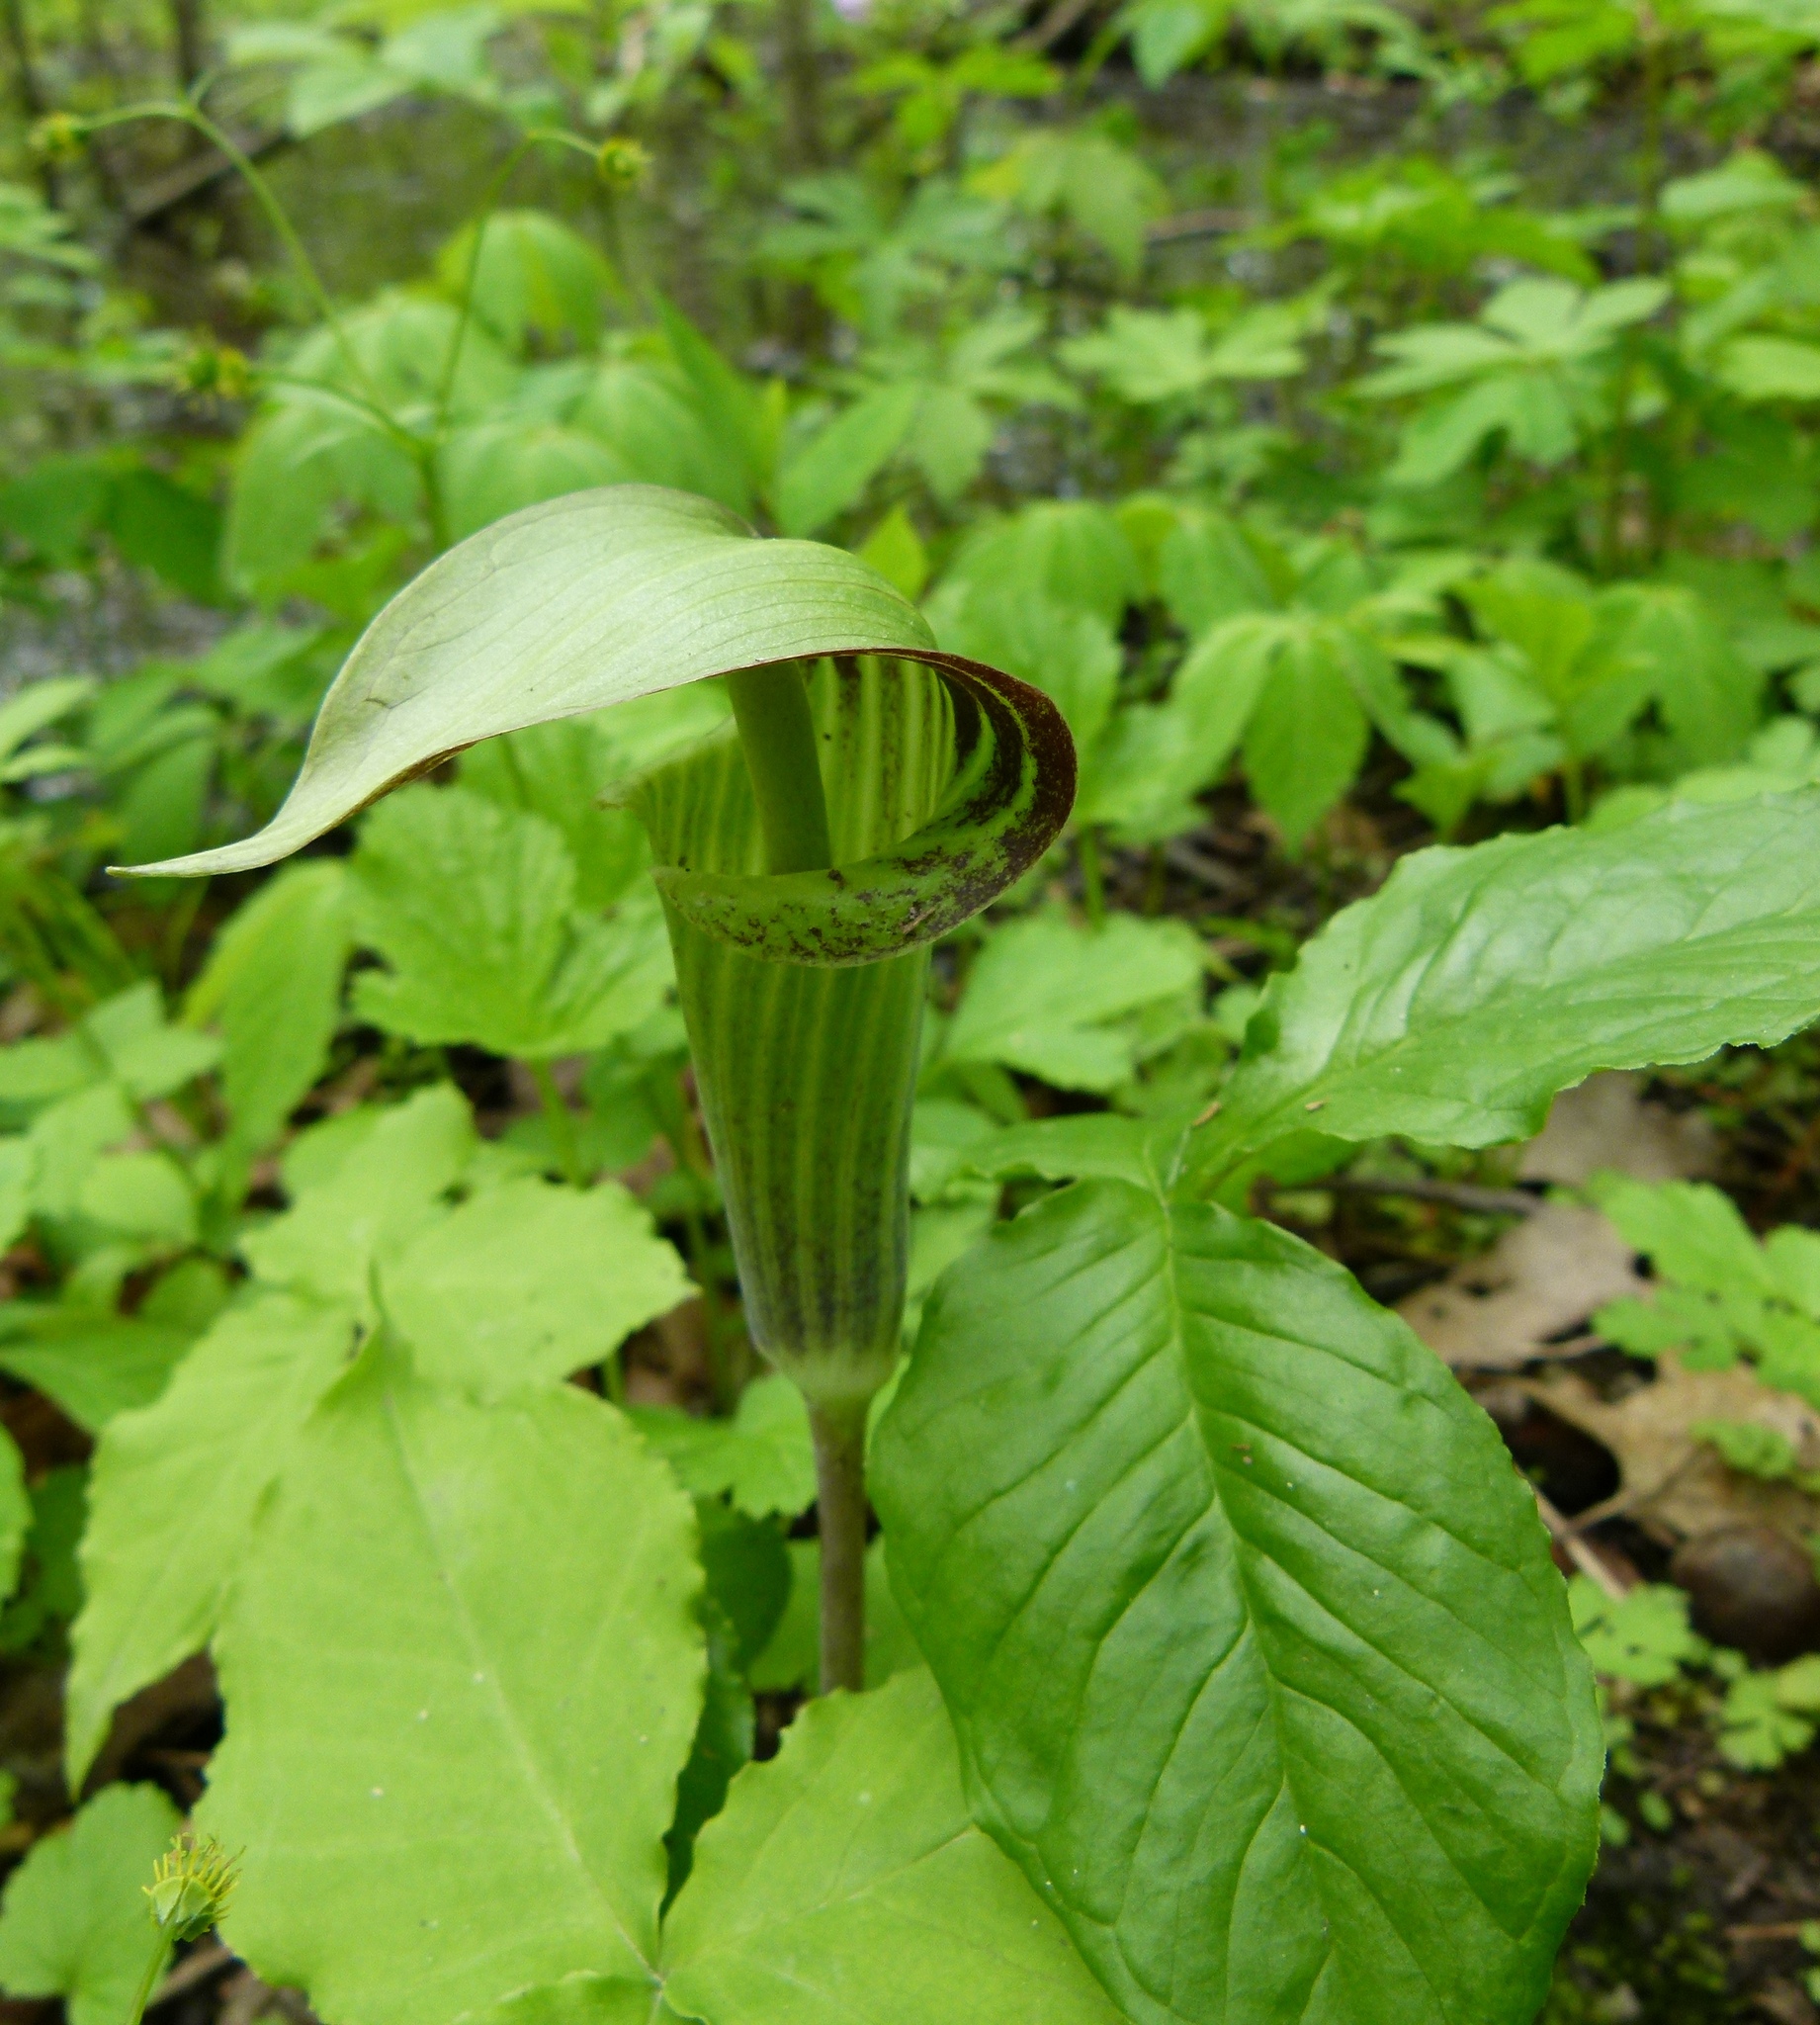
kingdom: Plantae
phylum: Tracheophyta
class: Liliopsida
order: Alismatales
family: Araceae
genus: Arisaema
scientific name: Arisaema triphyllum
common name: Jack-in-the-pulpit
